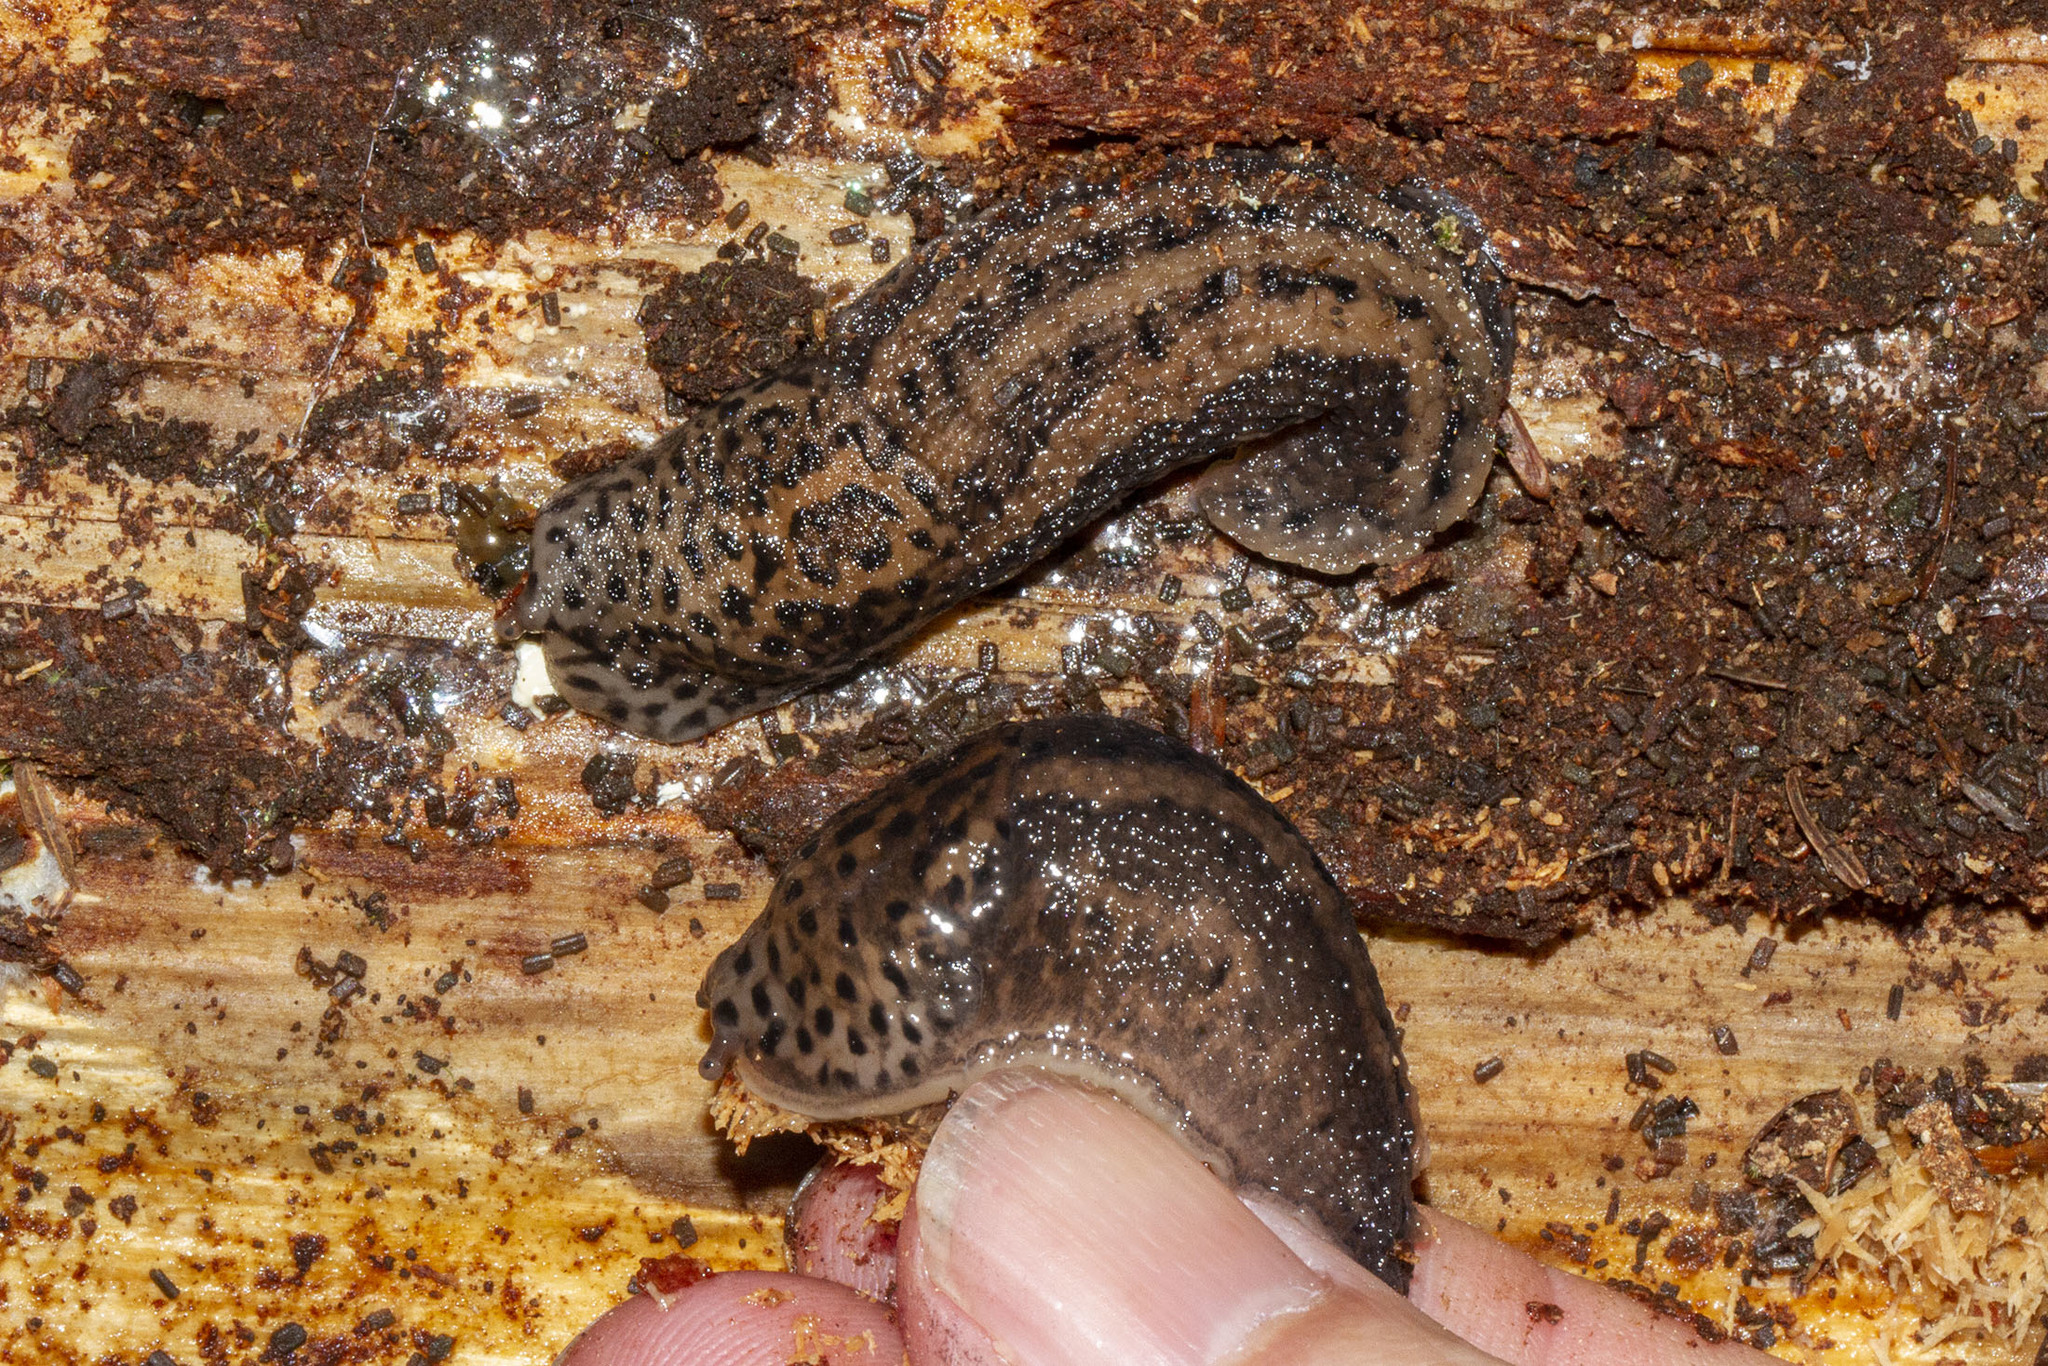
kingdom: Animalia
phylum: Mollusca
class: Gastropoda
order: Stylommatophora
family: Limacidae
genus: Limax
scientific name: Limax maximus
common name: Great grey slug
